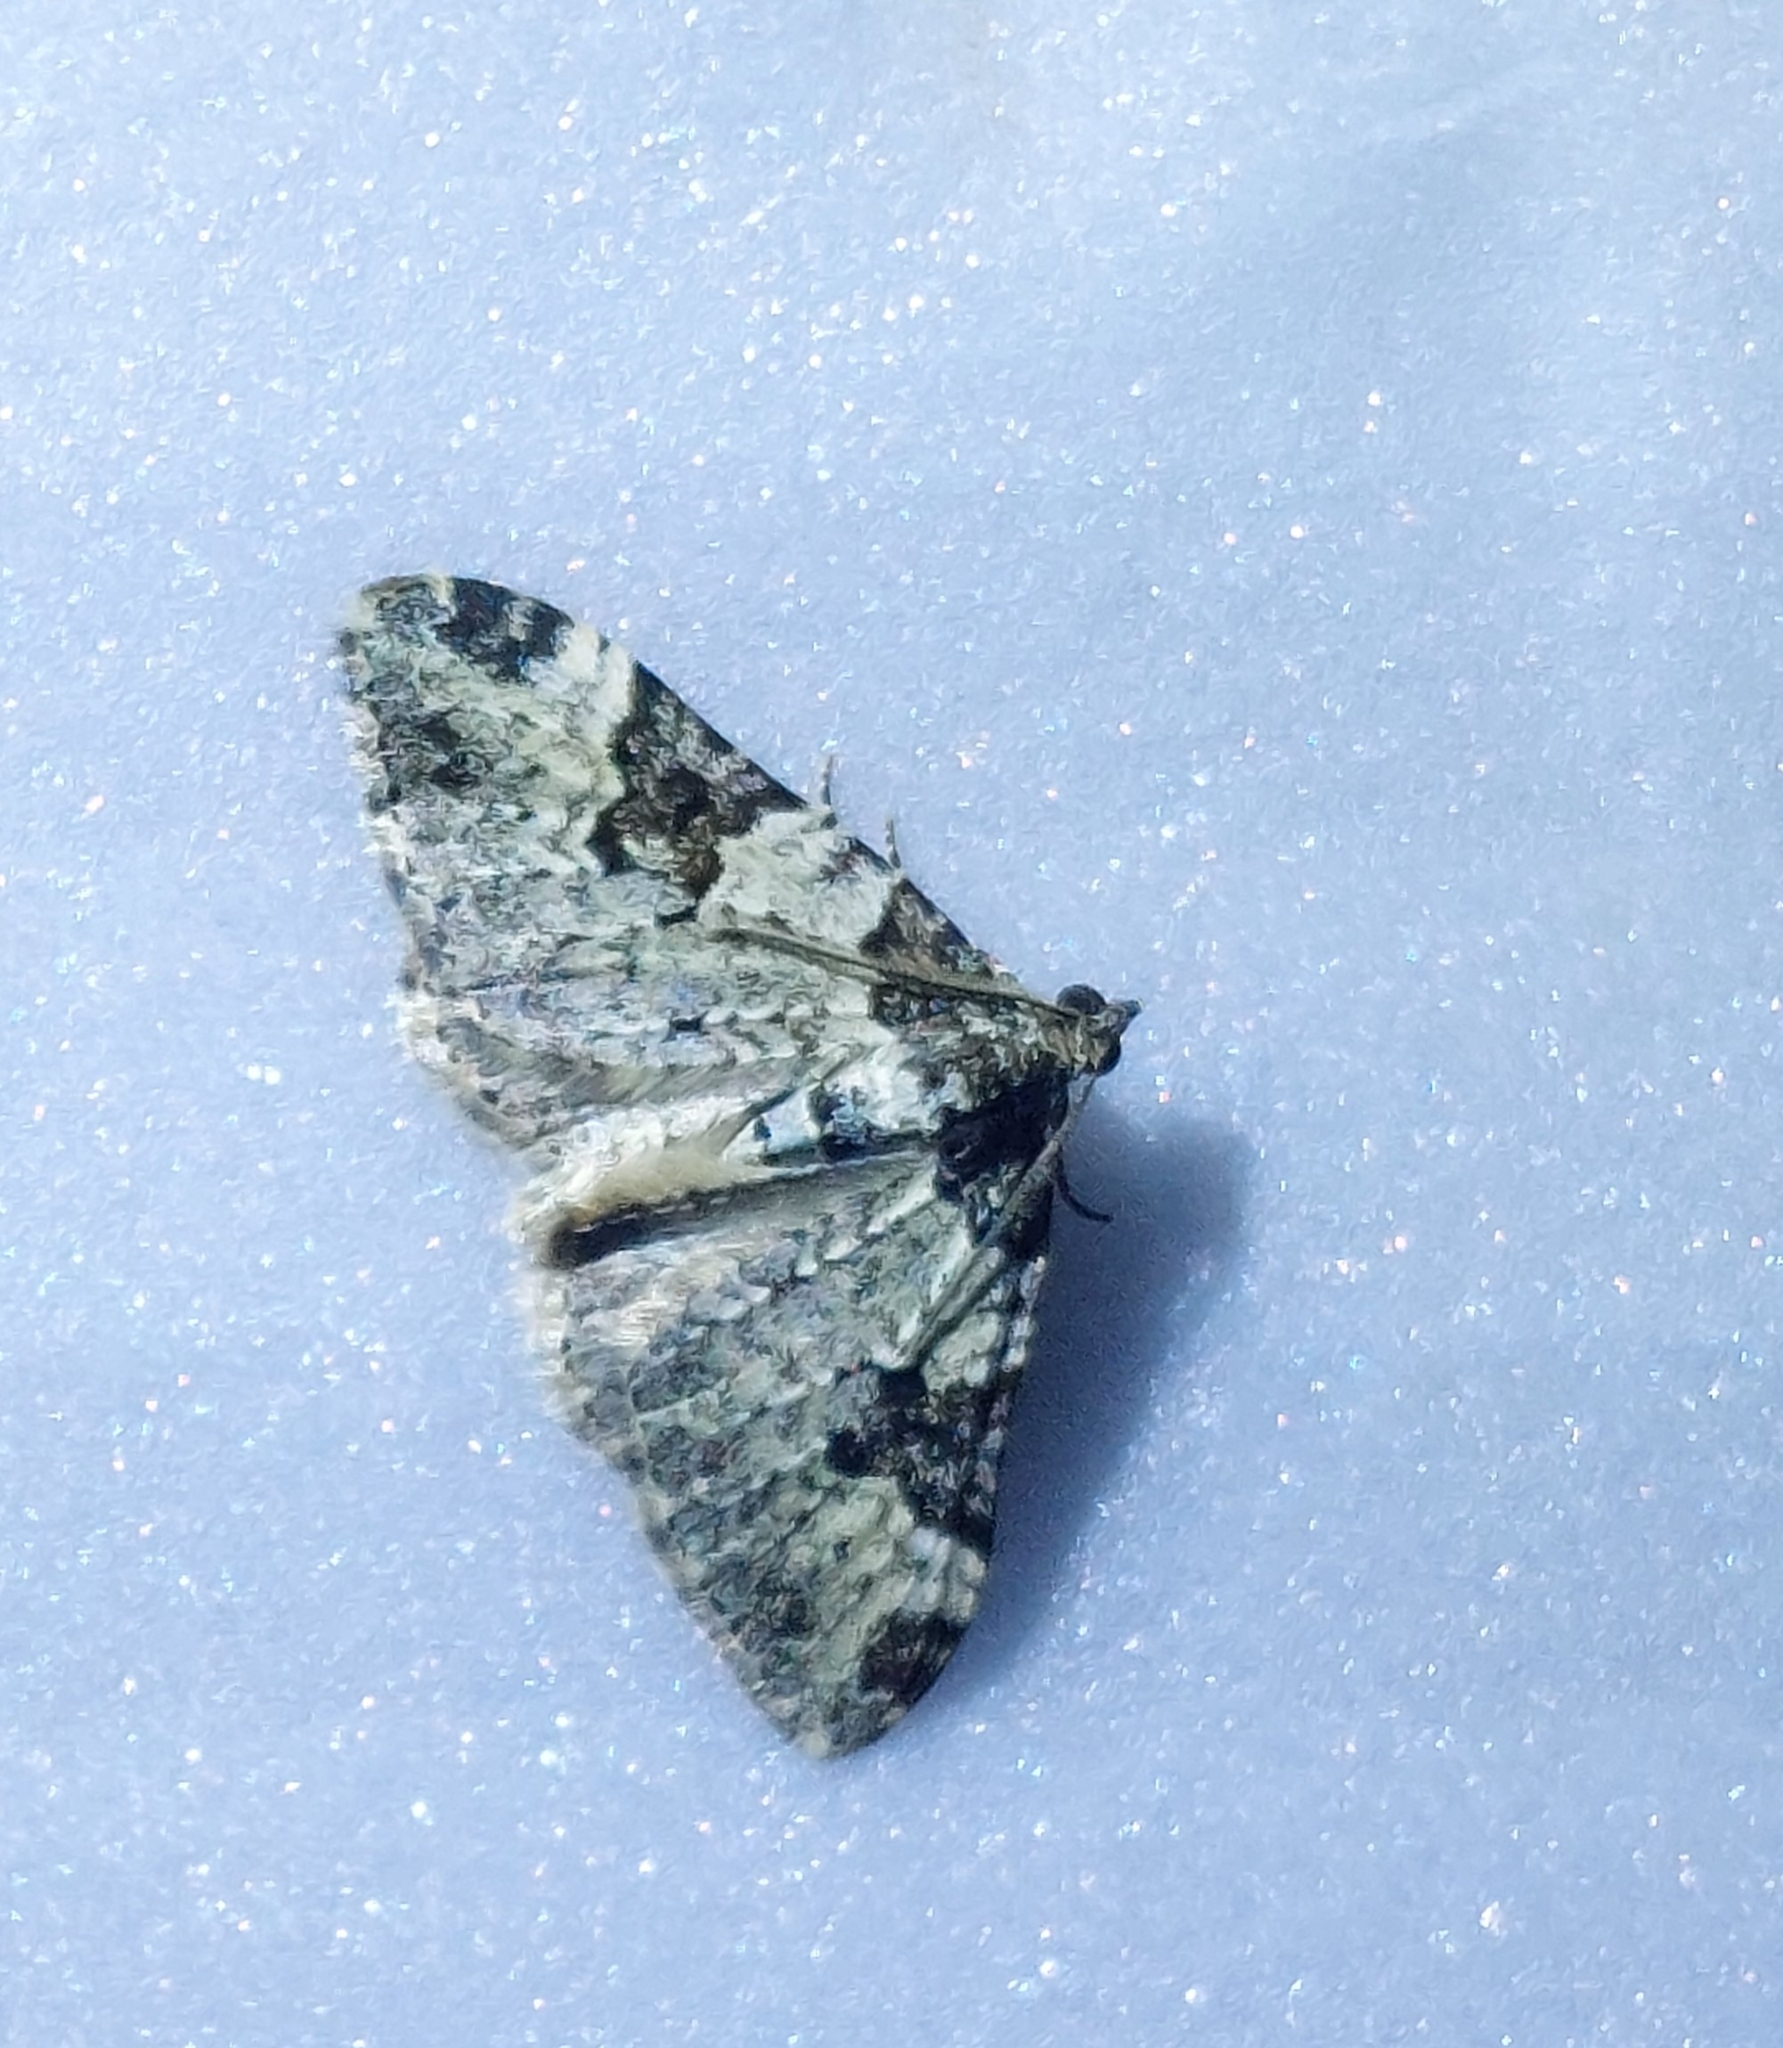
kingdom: Animalia
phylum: Arthropoda
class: Insecta
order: Lepidoptera
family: Geometridae
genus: Xanthorhoe
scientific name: Xanthorhoe fluctuata
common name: Garden carpet
